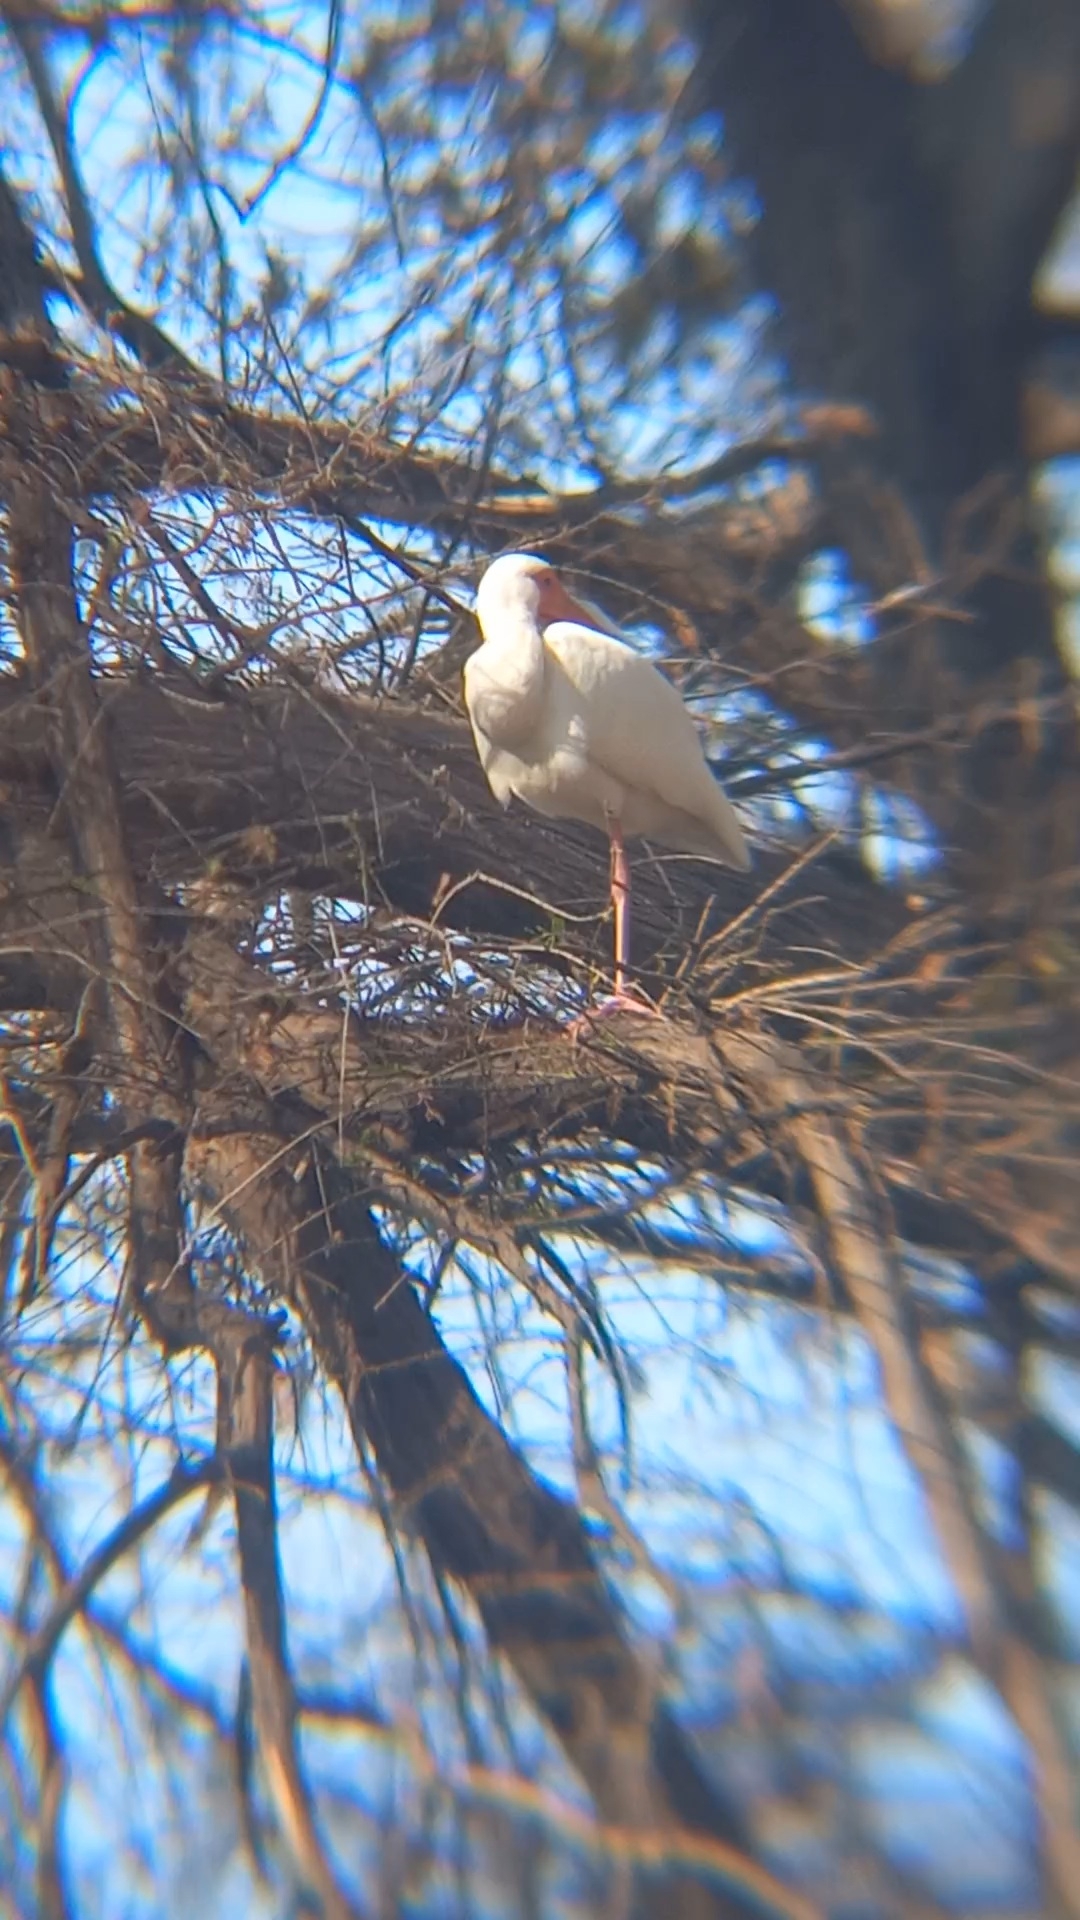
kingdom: Animalia
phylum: Chordata
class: Aves
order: Pelecaniformes
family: Threskiornithidae
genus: Eudocimus
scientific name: Eudocimus albus
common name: White ibis
